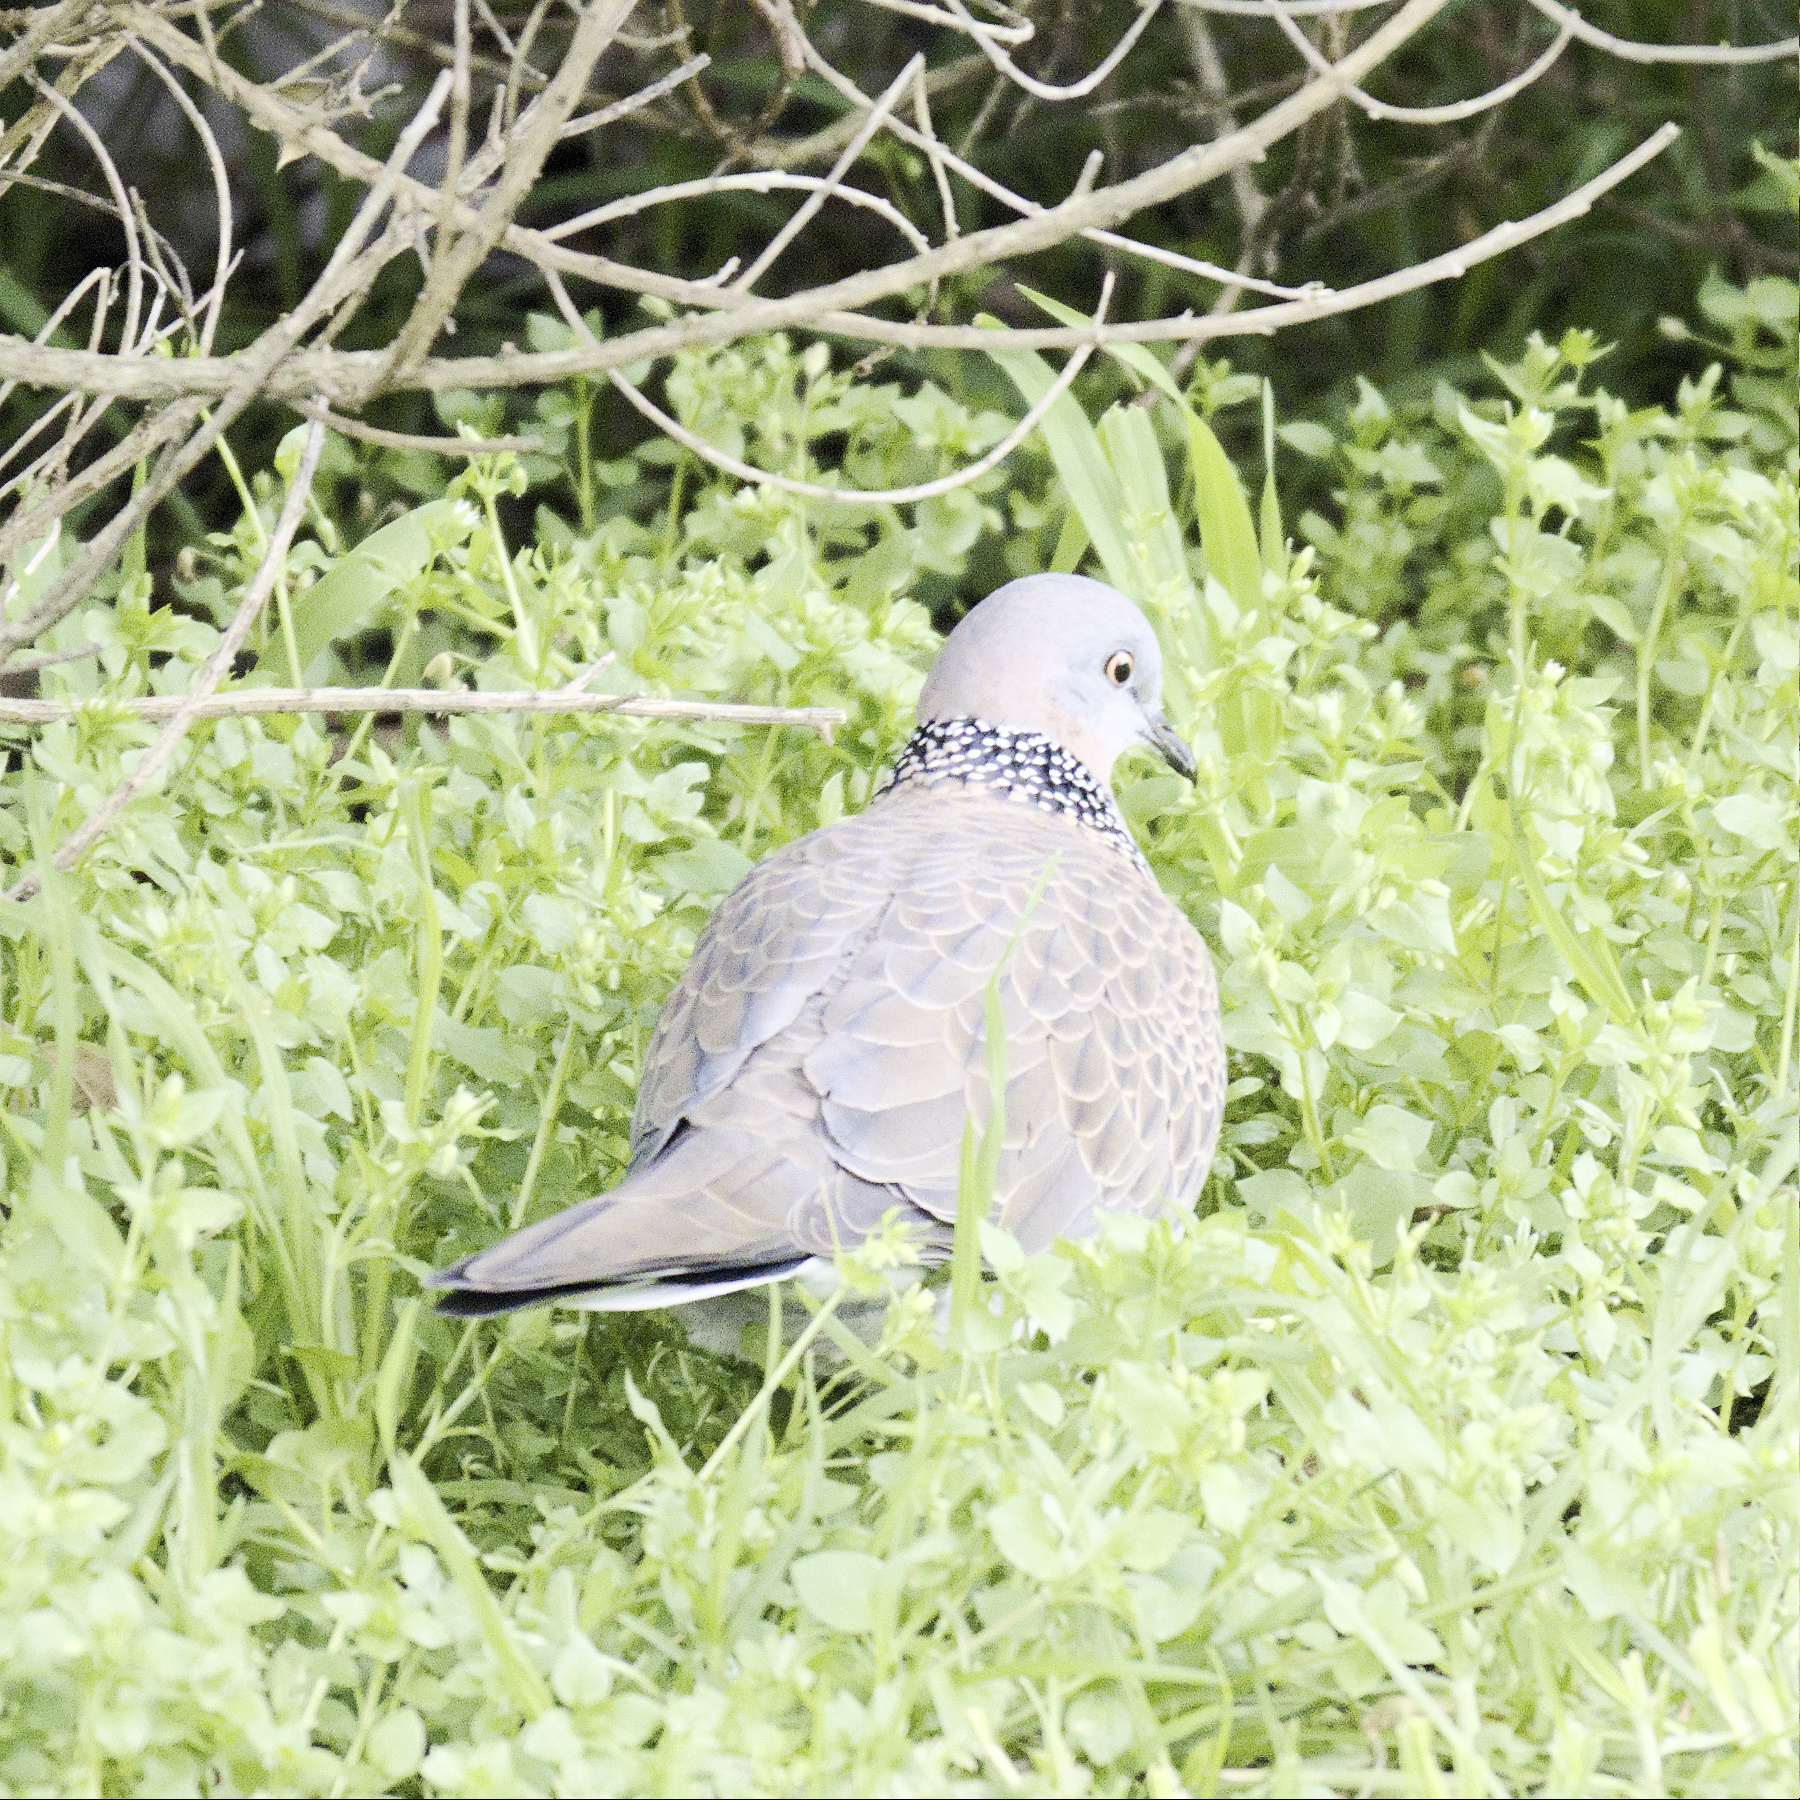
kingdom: Animalia
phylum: Chordata
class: Aves
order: Columbiformes
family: Columbidae
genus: Spilopelia
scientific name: Spilopelia chinensis
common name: Spotted dove
